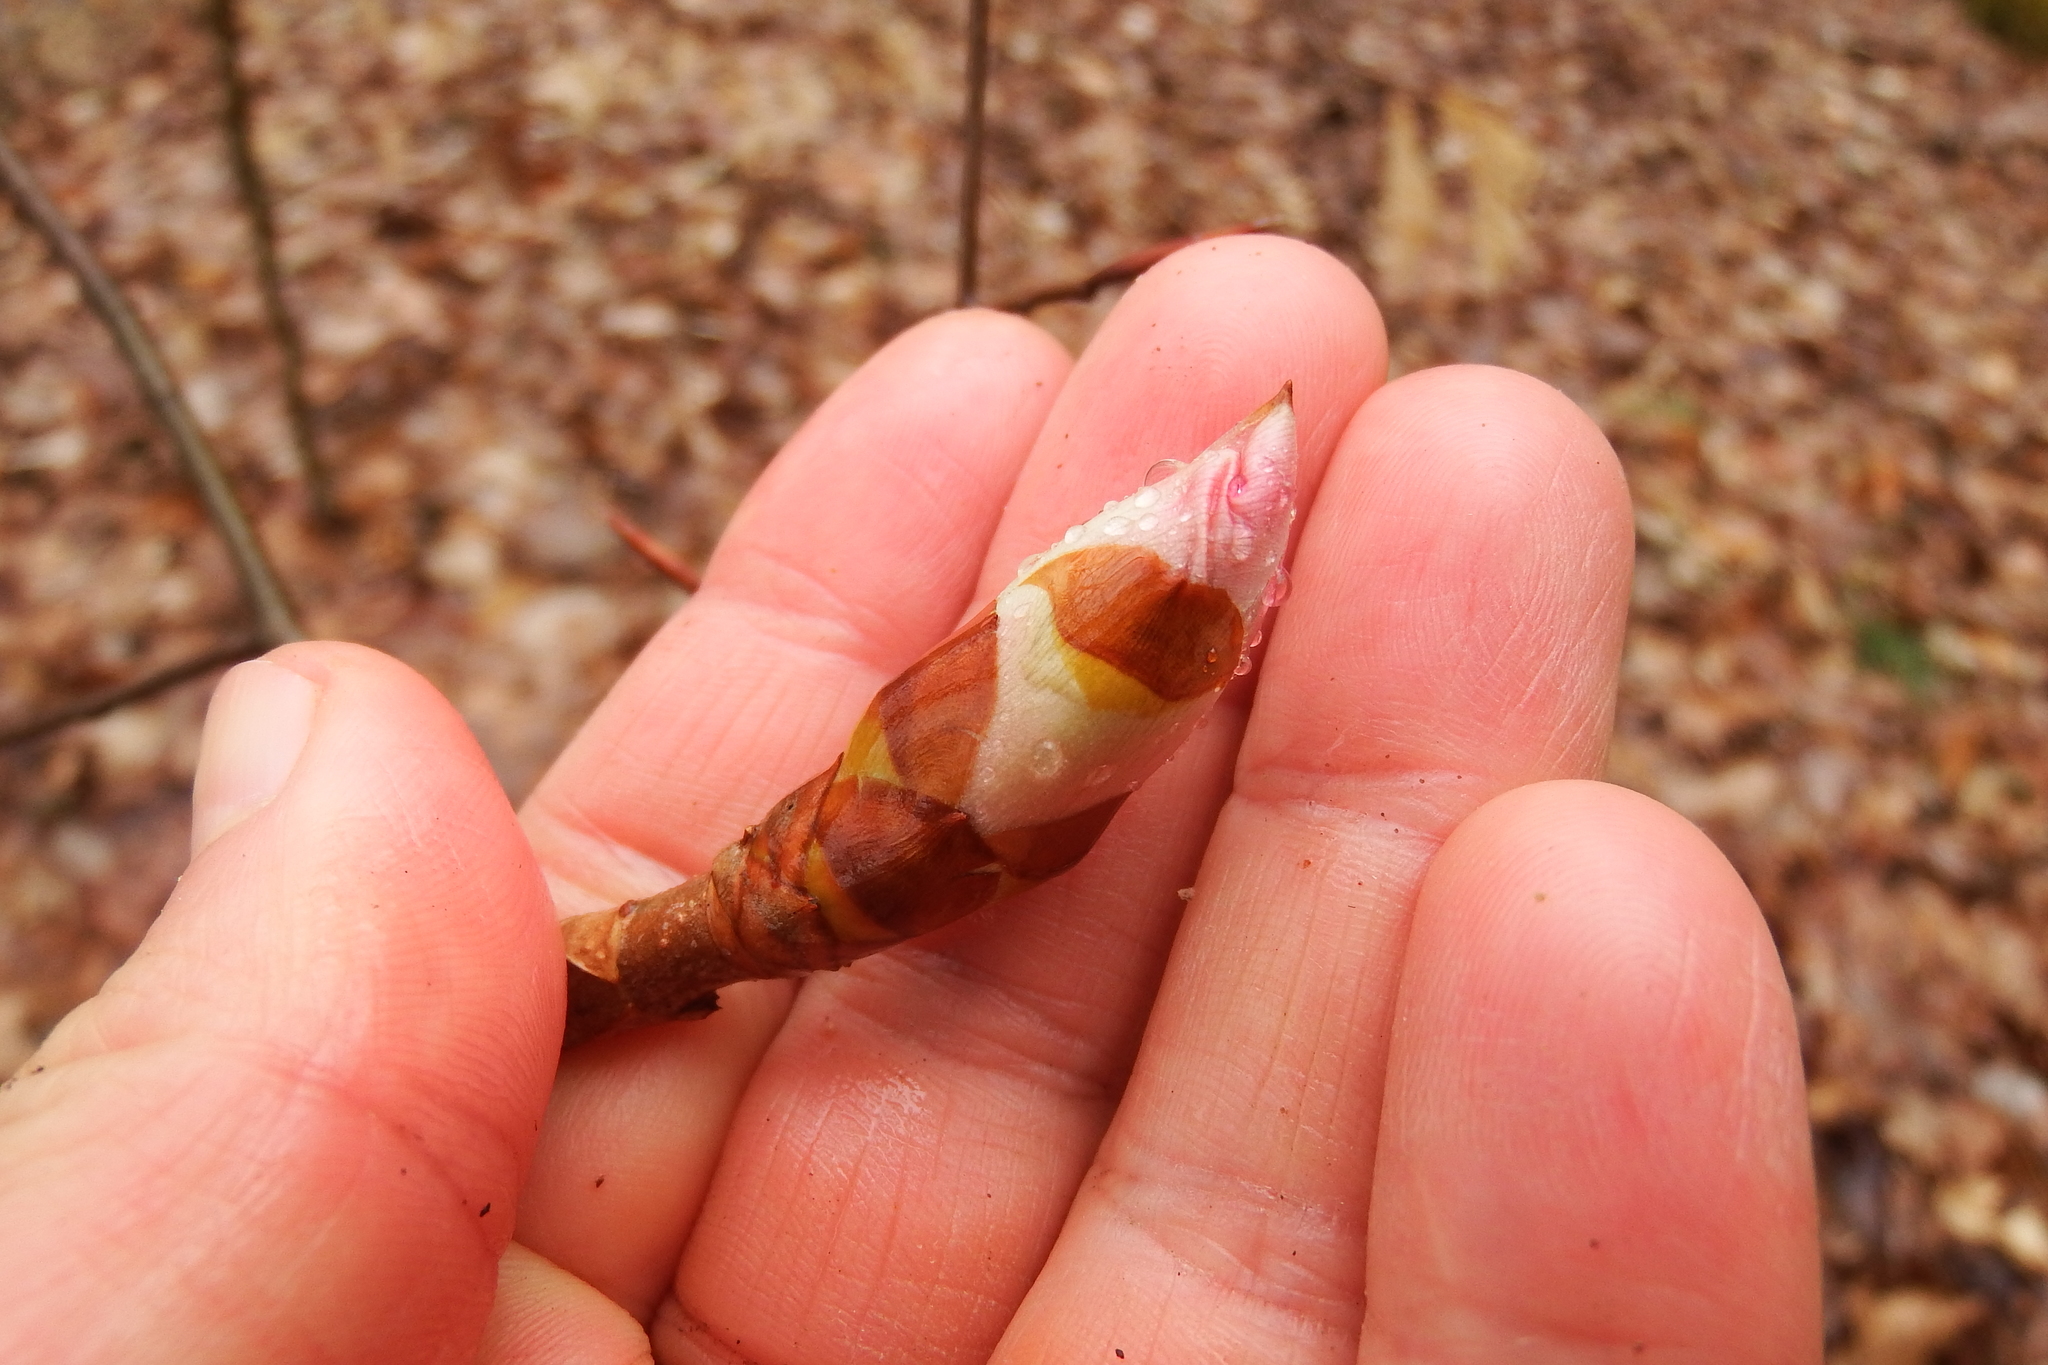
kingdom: Plantae
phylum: Tracheophyta
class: Magnoliopsida
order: Sapindales
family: Sapindaceae
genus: Aesculus
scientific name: Aesculus flava
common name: Yellow buckeye
